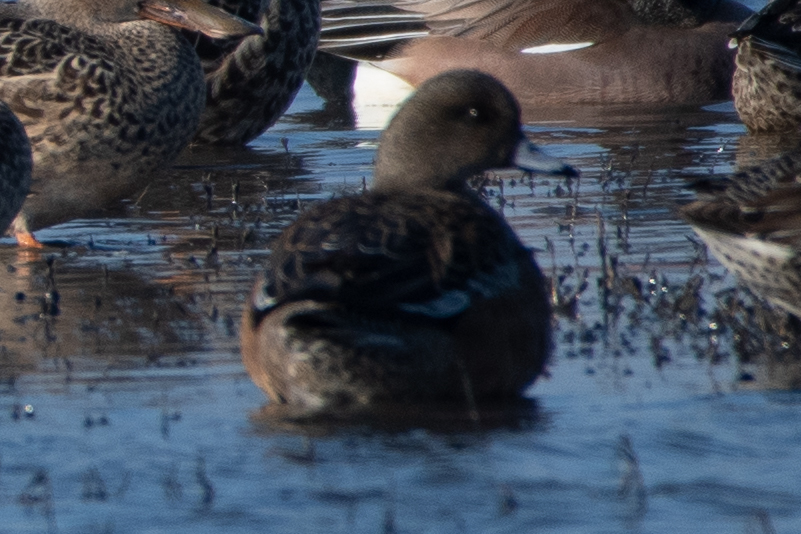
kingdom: Animalia
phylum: Chordata
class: Aves
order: Anseriformes
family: Anatidae
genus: Mareca
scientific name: Mareca americana
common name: American wigeon
